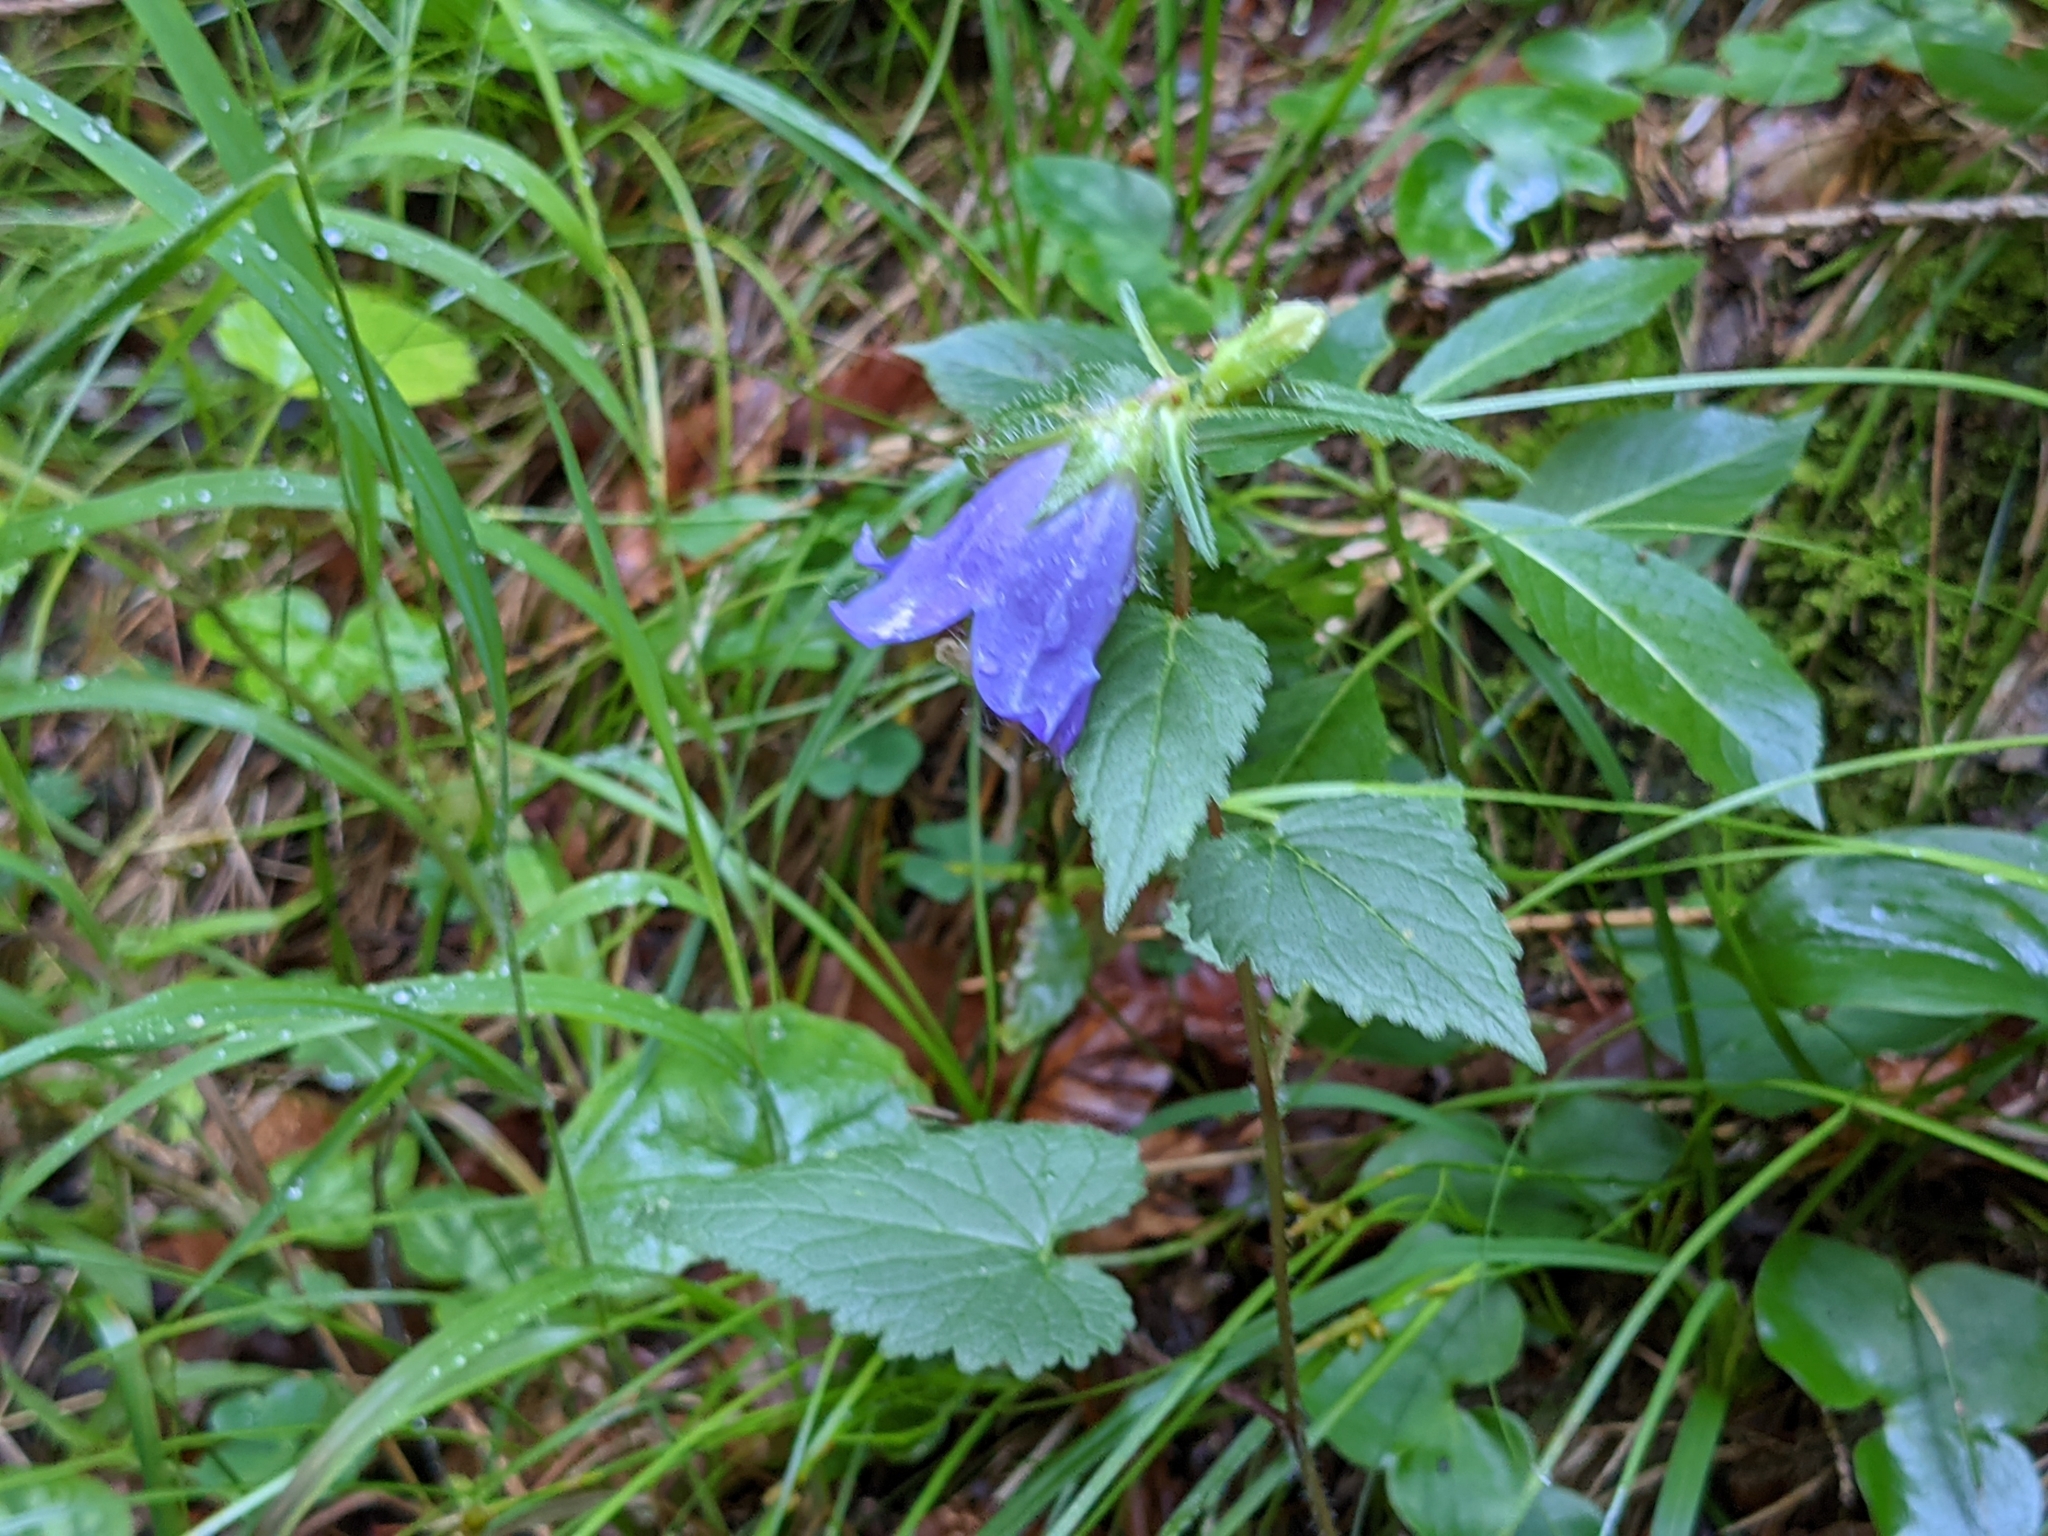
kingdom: Plantae
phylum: Tracheophyta
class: Magnoliopsida
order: Asterales
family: Campanulaceae
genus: Campanula
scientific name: Campanula trachelium
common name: Nettle-leaved bellflower
